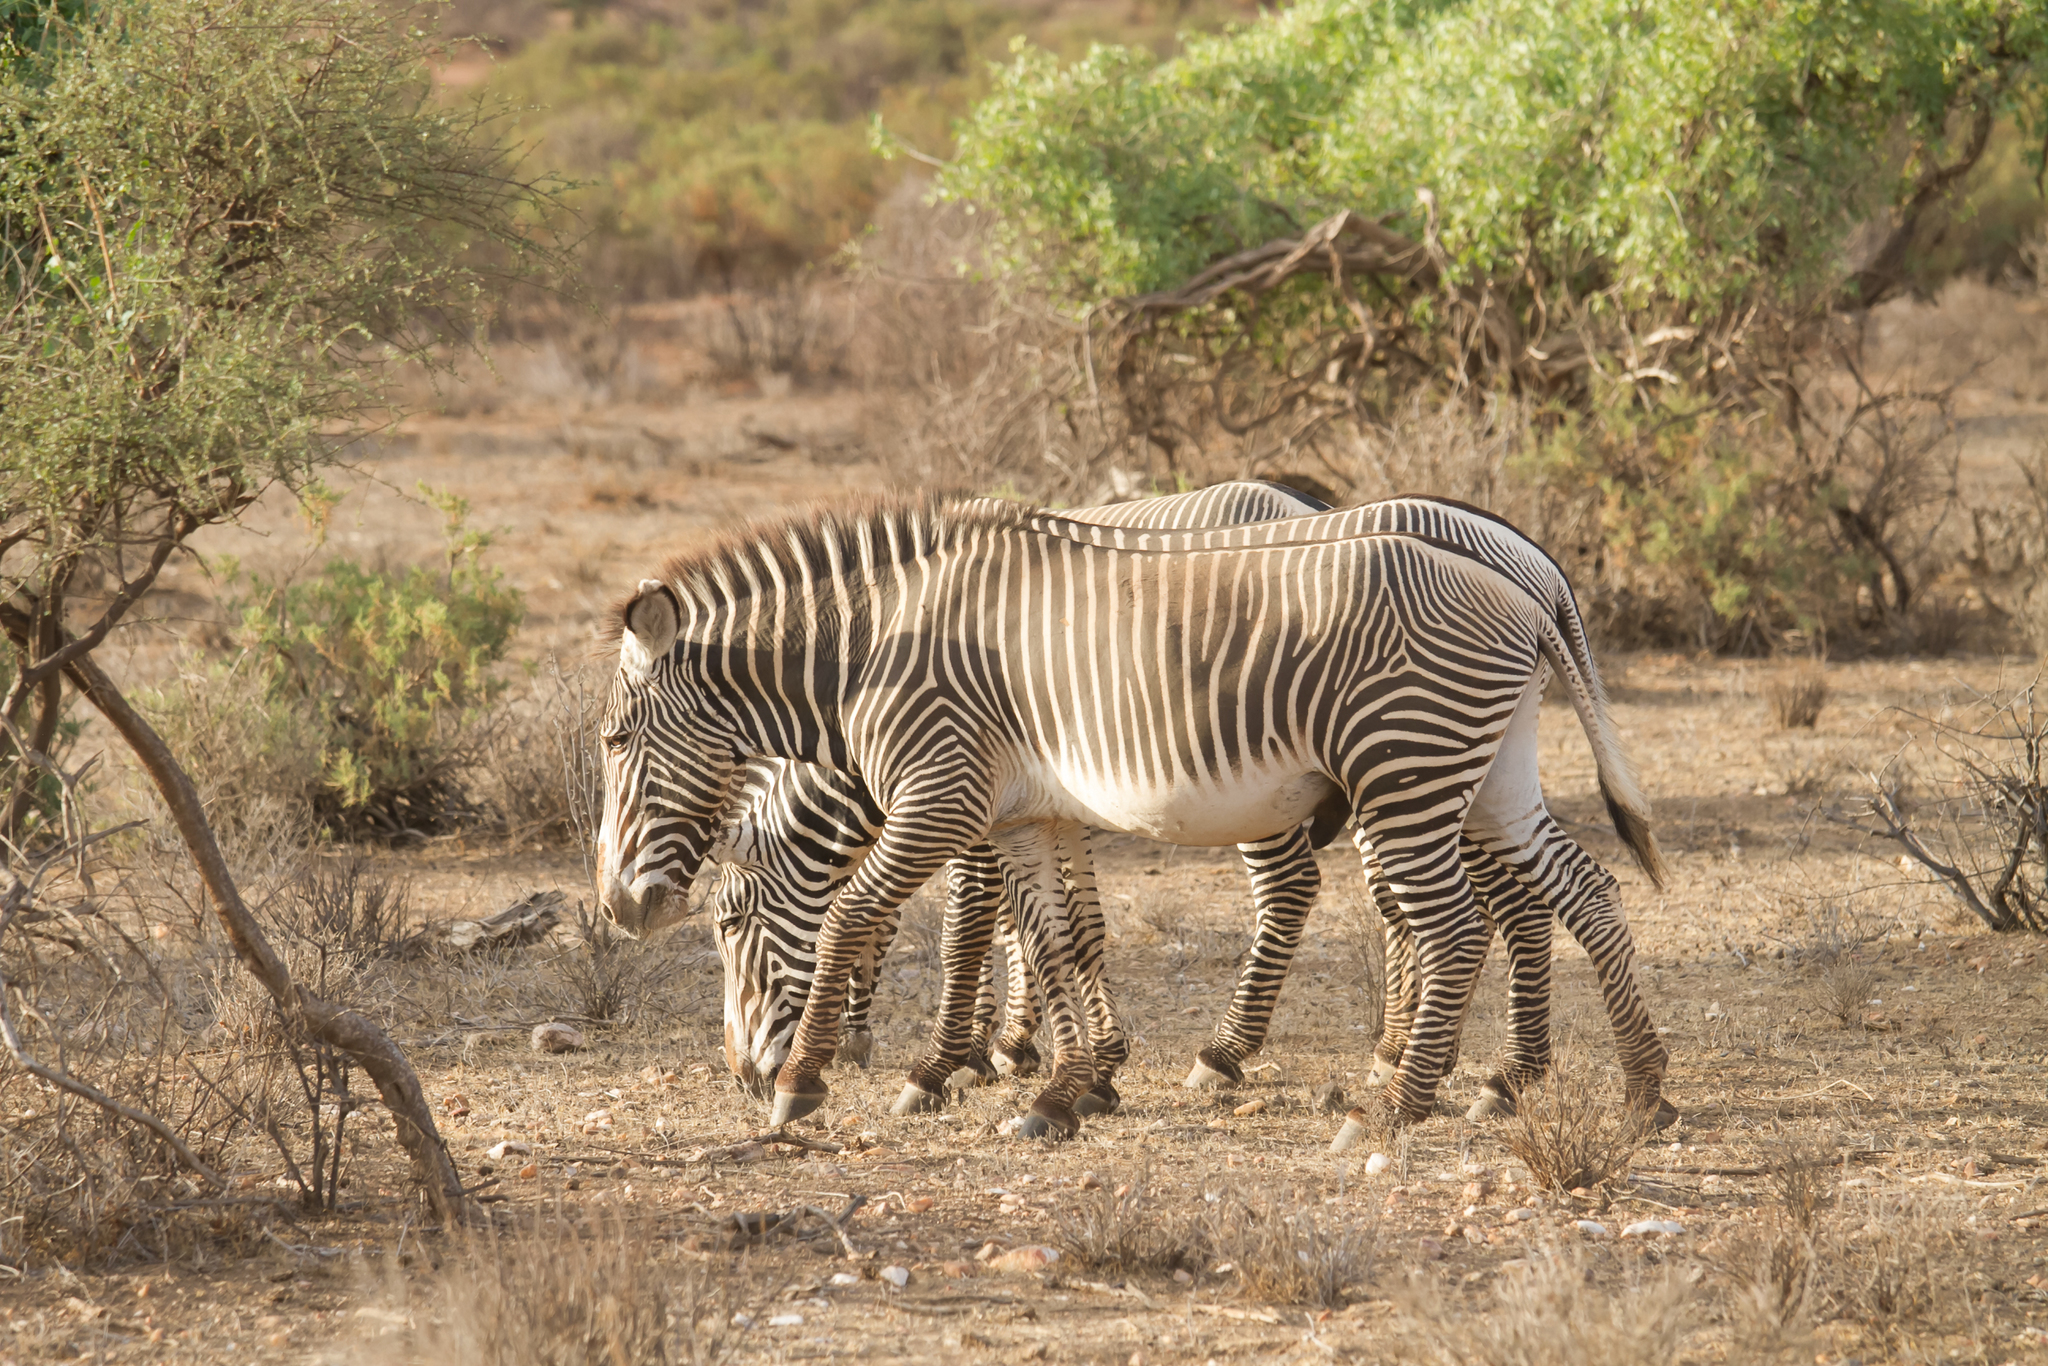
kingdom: Animalia
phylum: Chordata
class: Mammalia
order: Perissodactyla
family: Equidae
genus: Equus
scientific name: Equus grevyi
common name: Grevy's zebra
